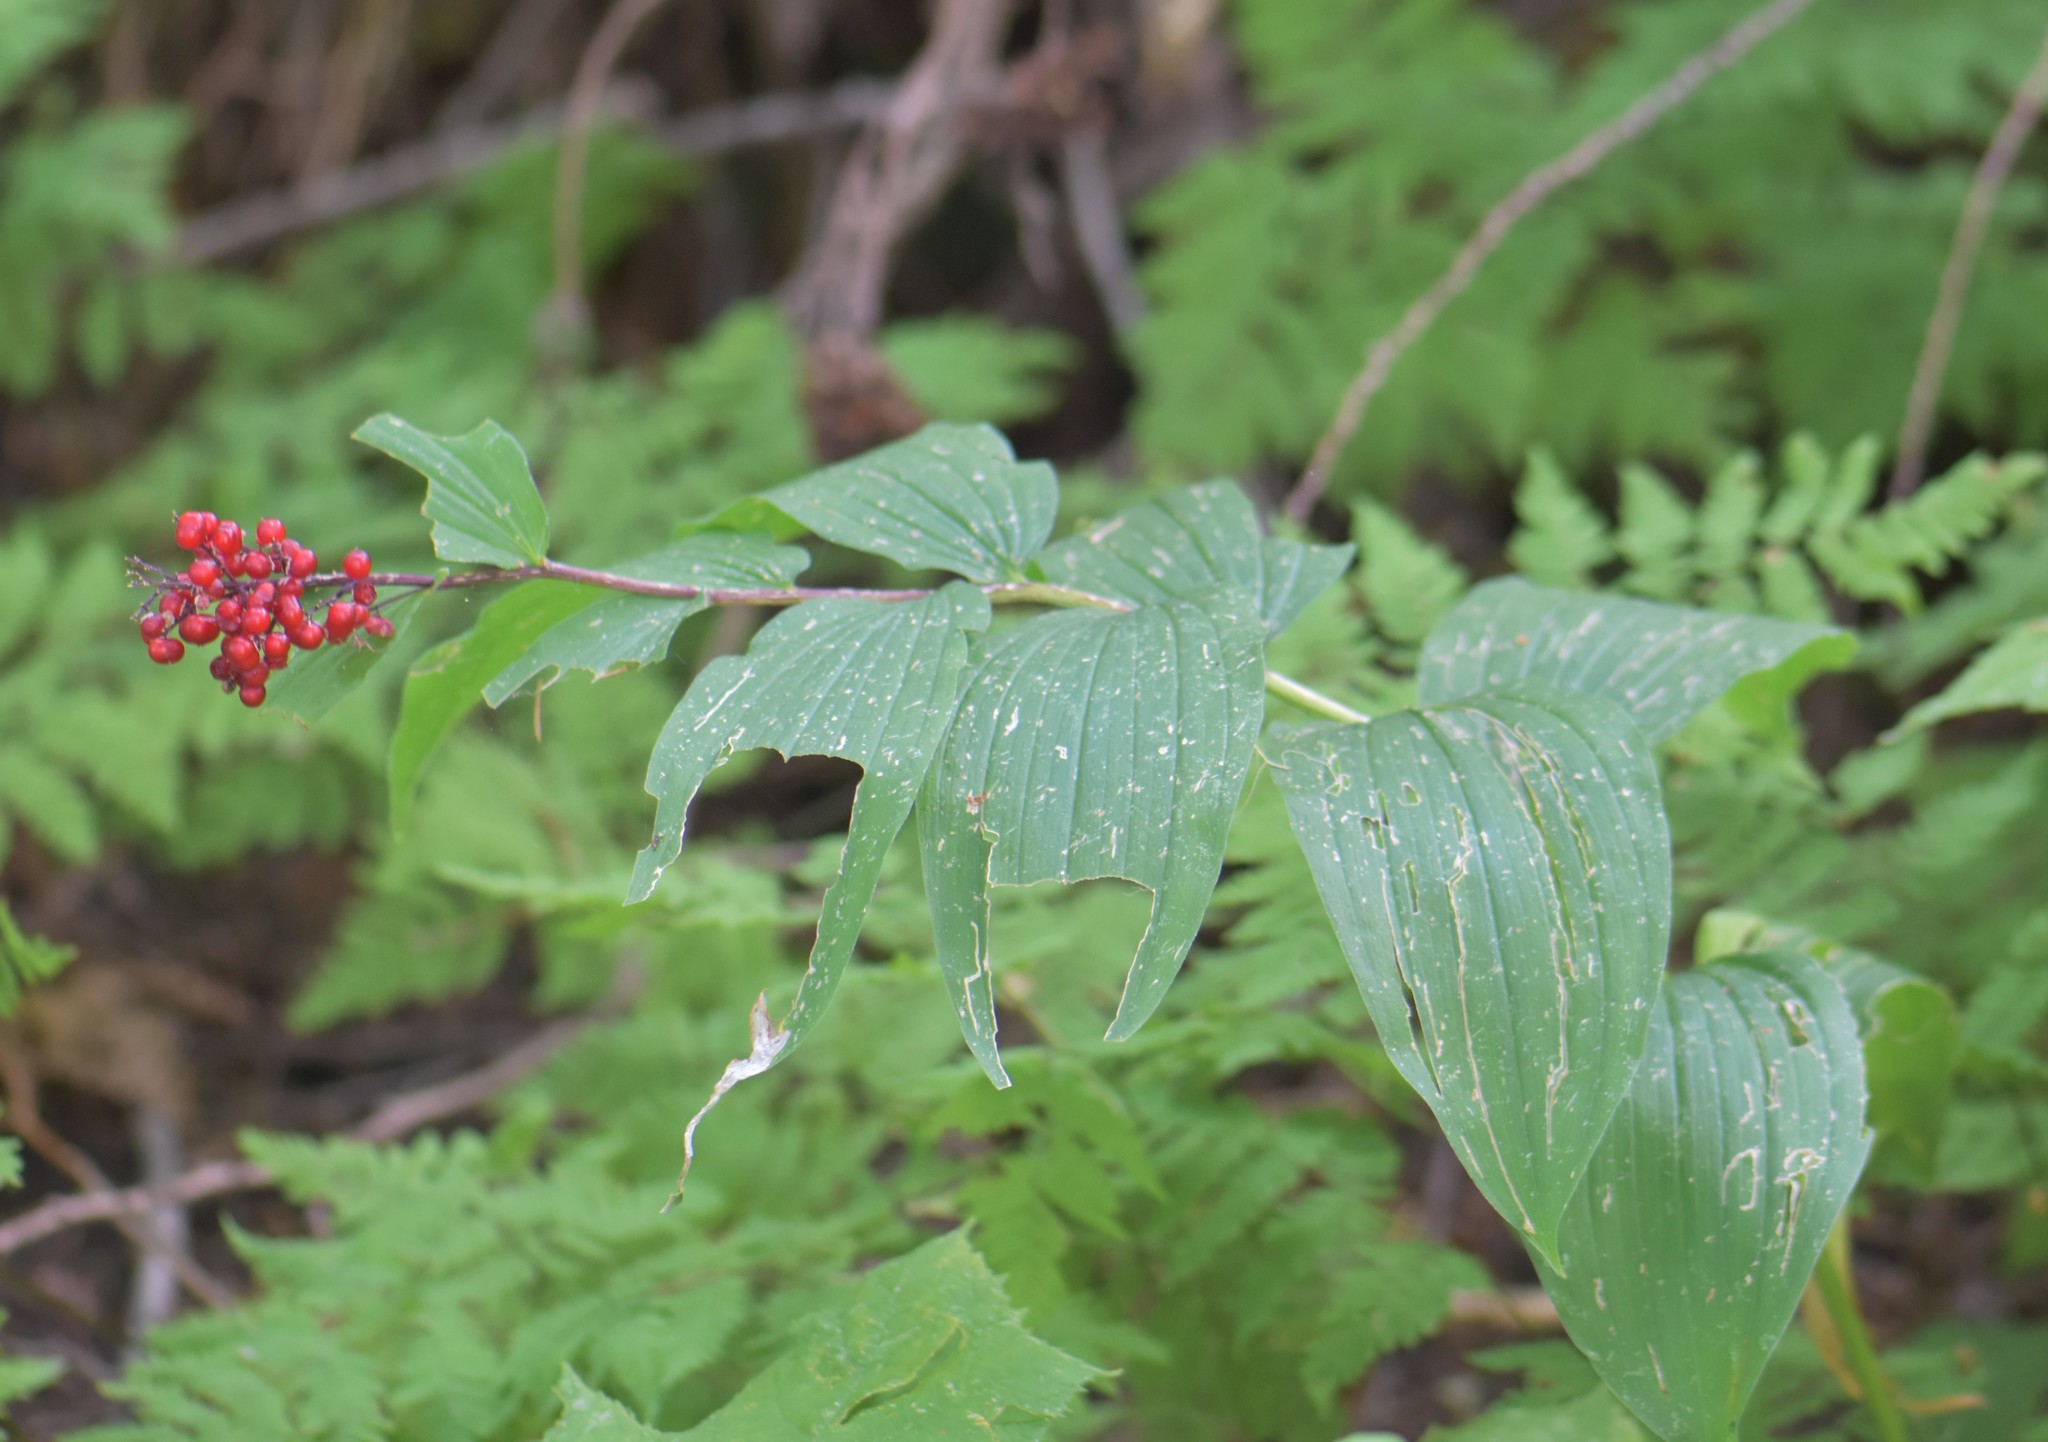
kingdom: Plantae
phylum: Tracheophyta
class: Liliopsida
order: Asparagales
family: Asparagaceae
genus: Maianthemum
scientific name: Maianthemum racemosum
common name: False spikenard
